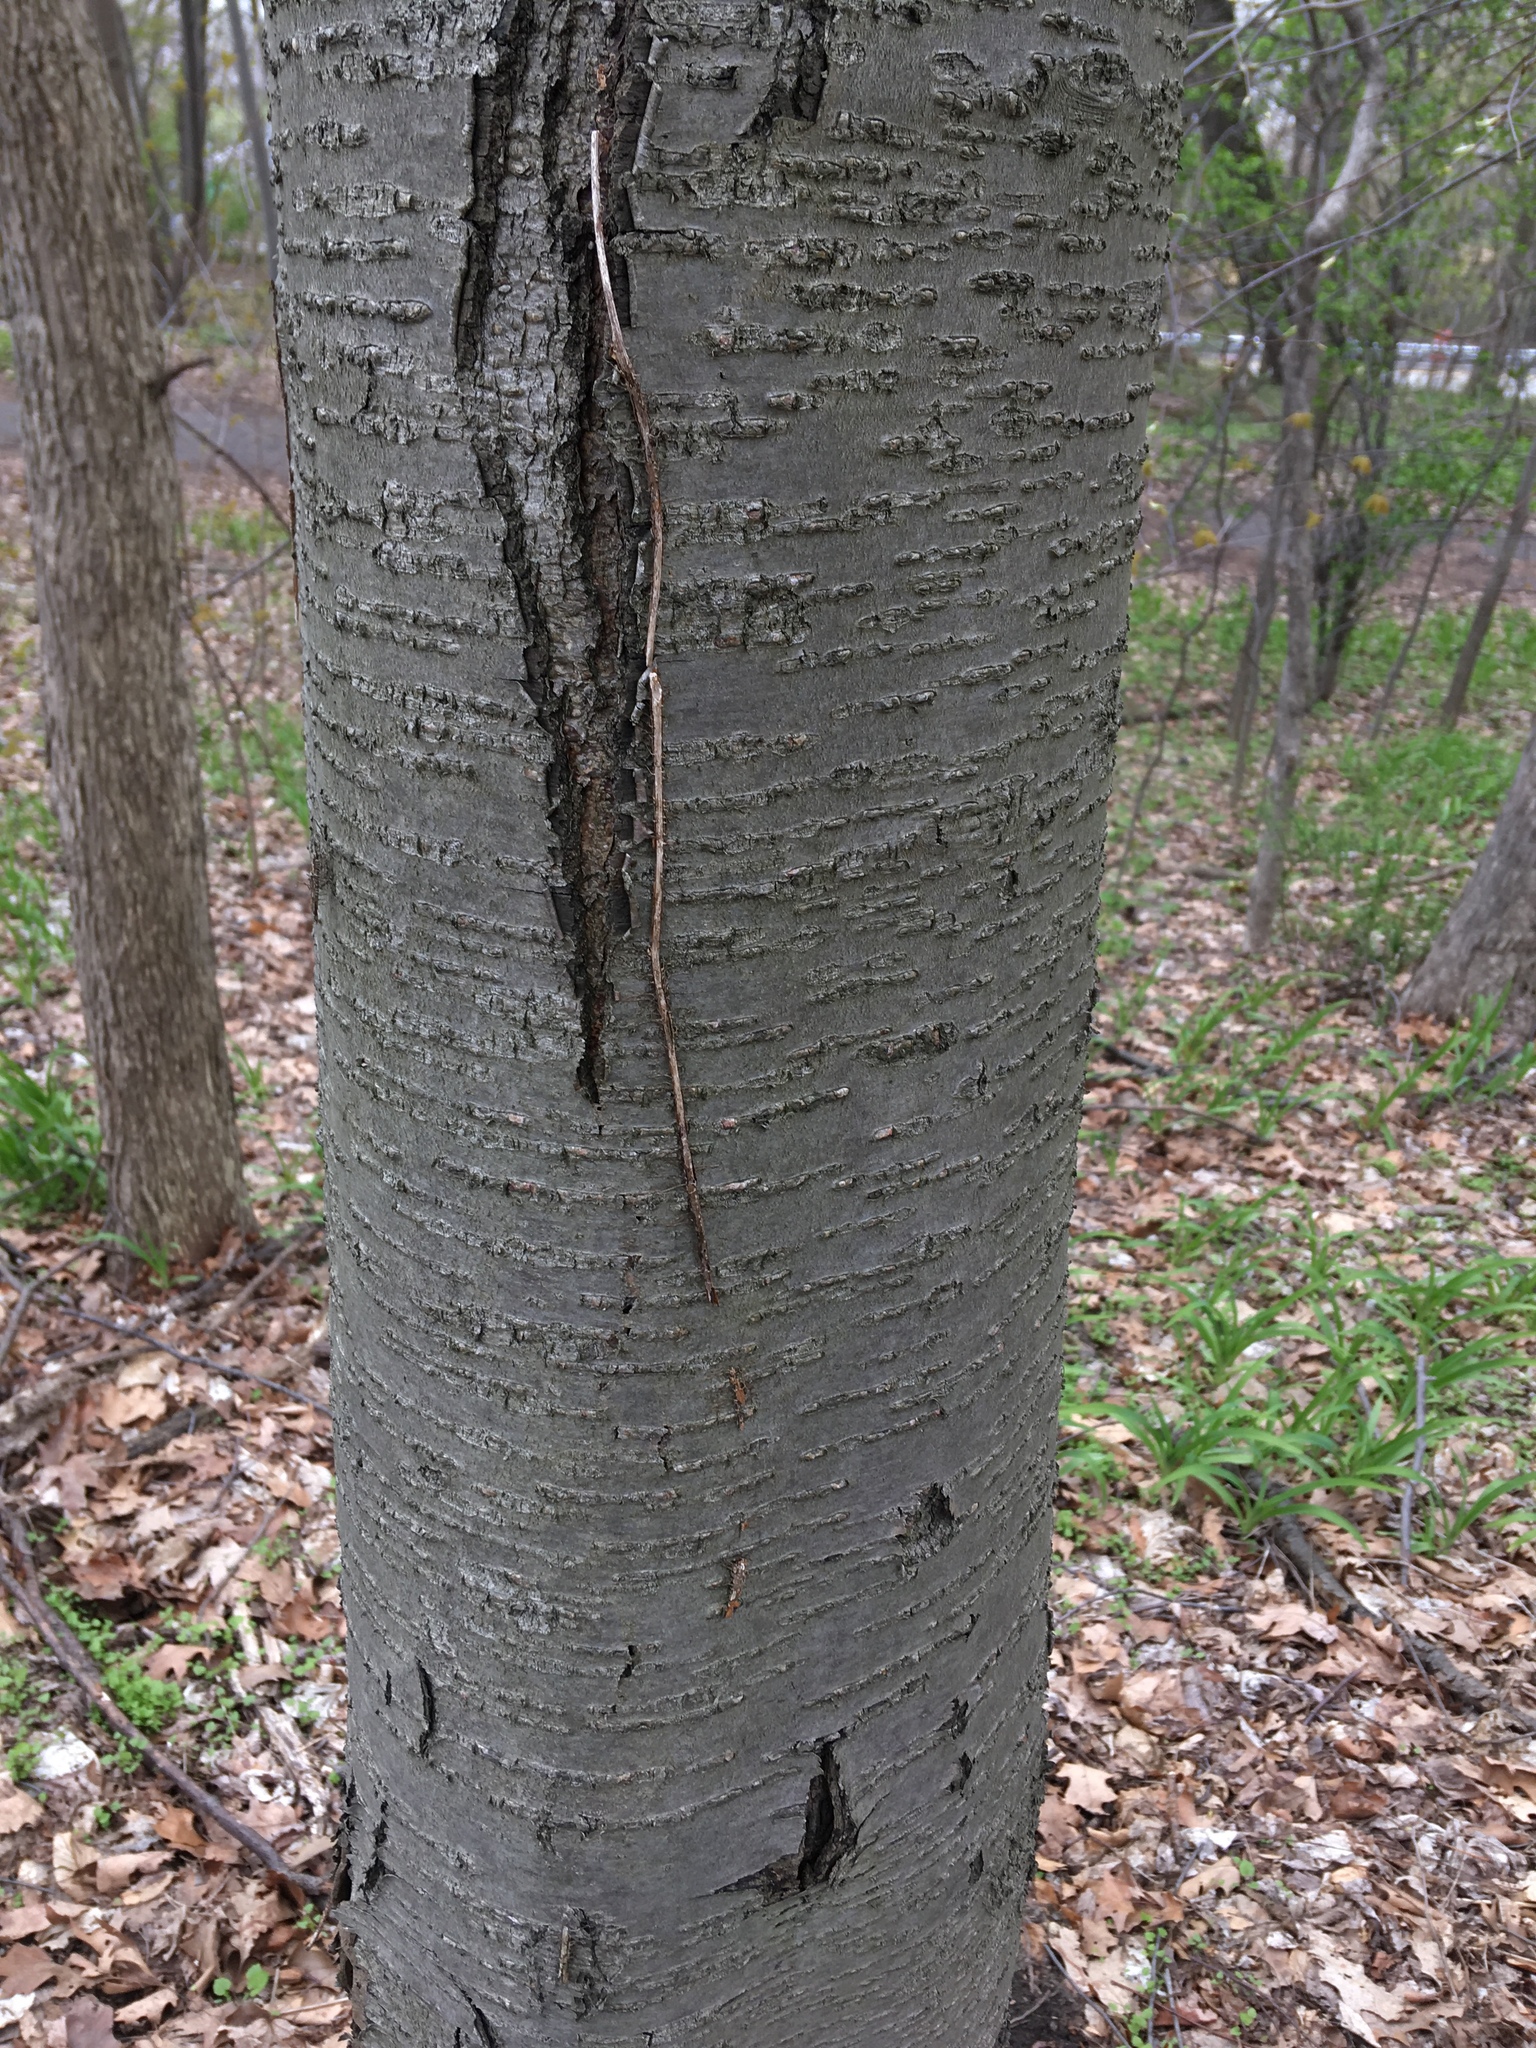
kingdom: Plantae
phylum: Tracheophyta
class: Magnoliopsida
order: Fagales
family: Betulaceae
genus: Betula
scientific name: Betula lenta
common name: Black birch
